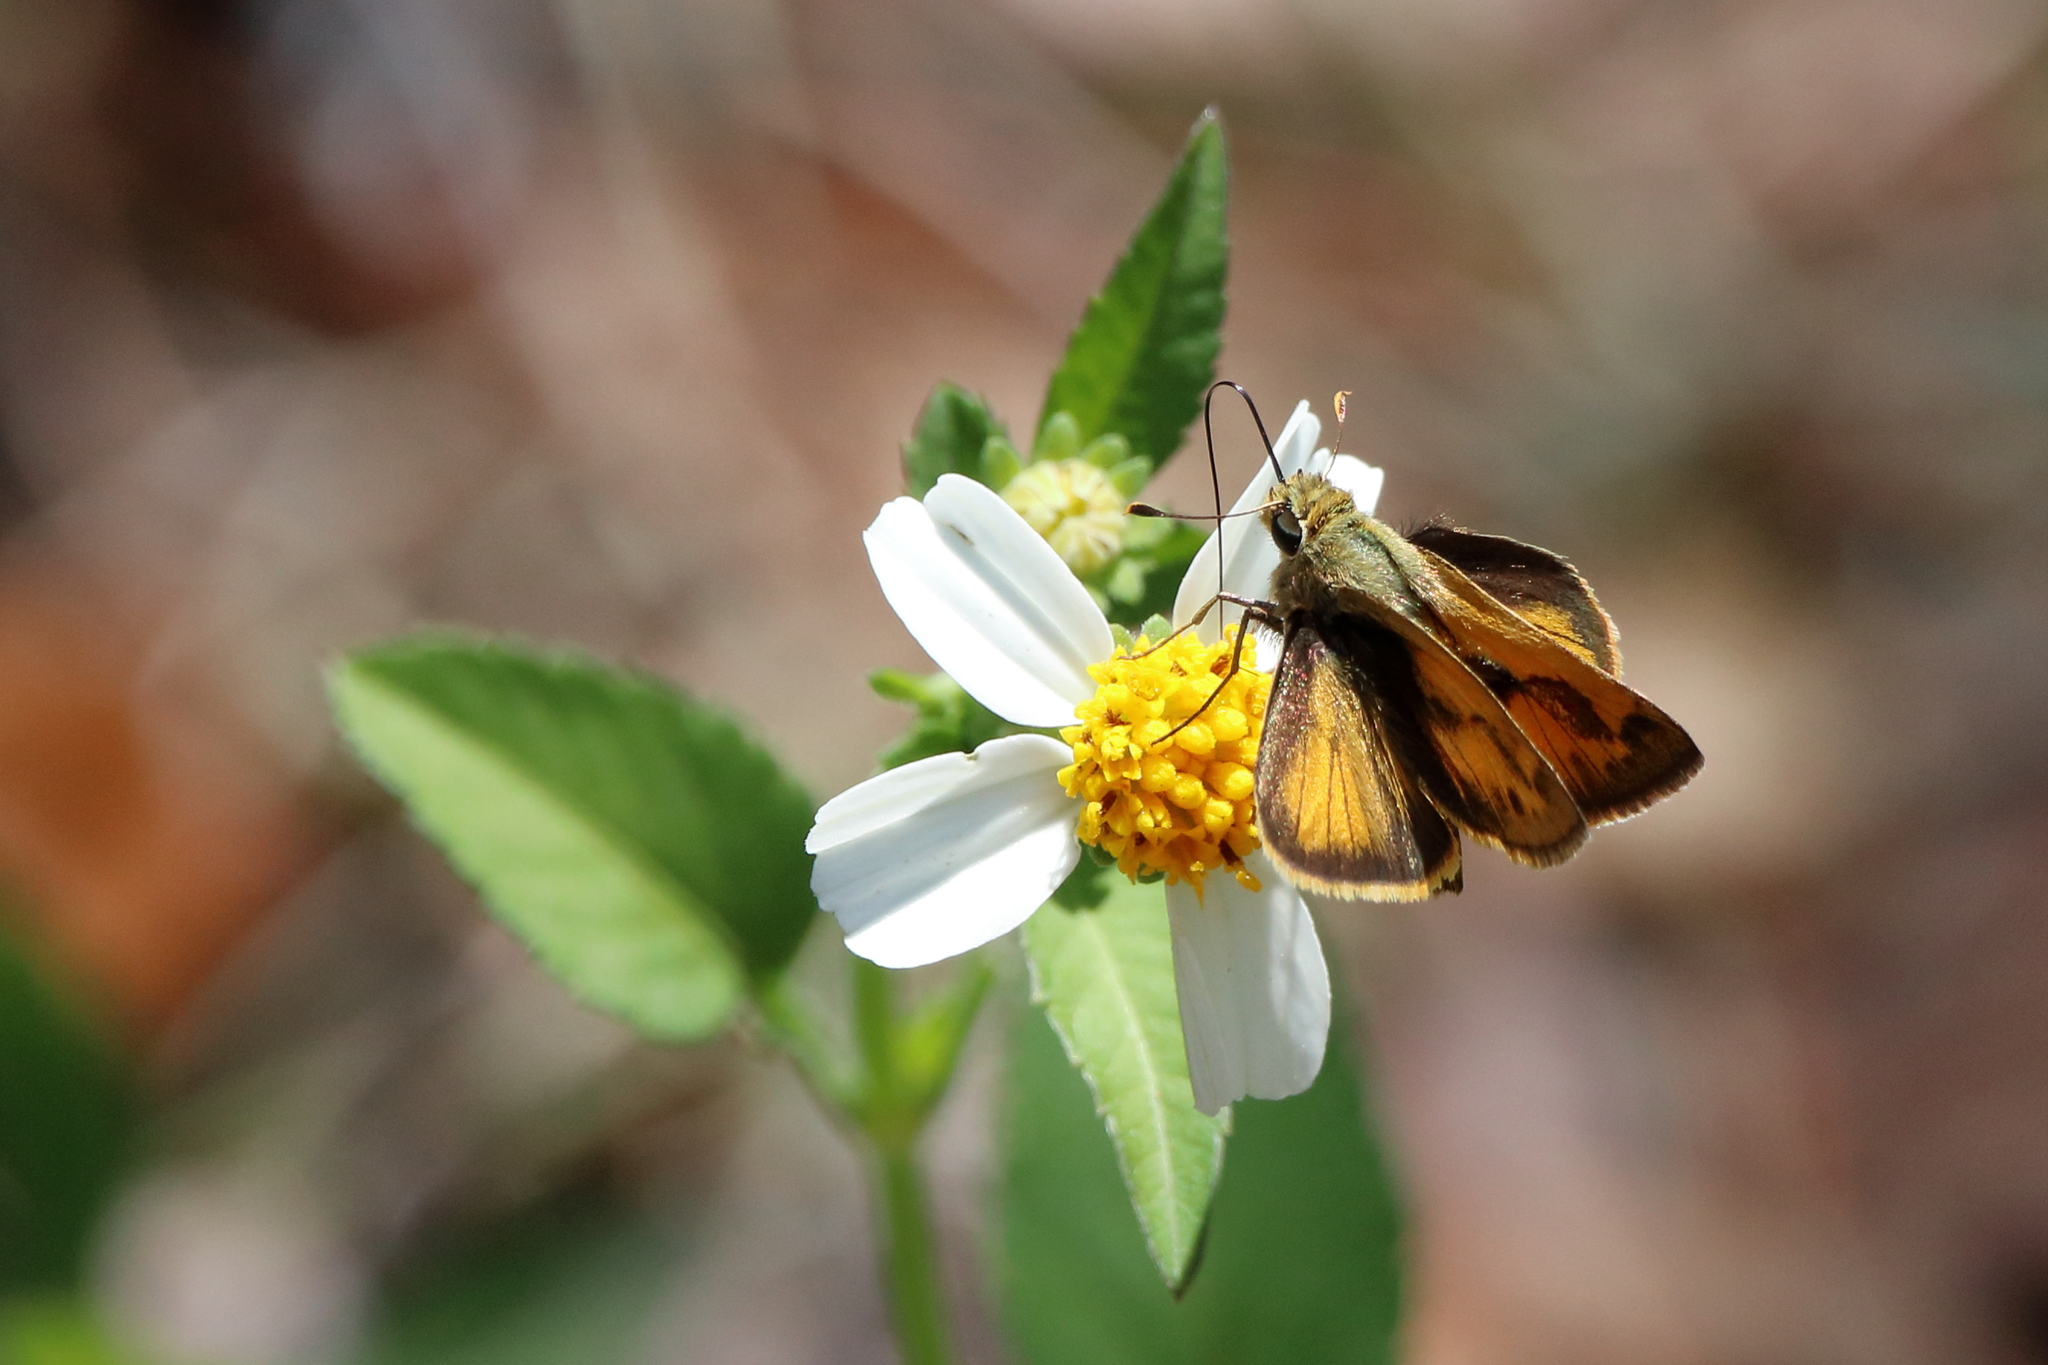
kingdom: Animalia
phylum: Arthropoda
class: Insecta
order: Lepidoptera
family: Hesperiidae
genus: Polites
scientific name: Polites vibex
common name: Whirlabout
